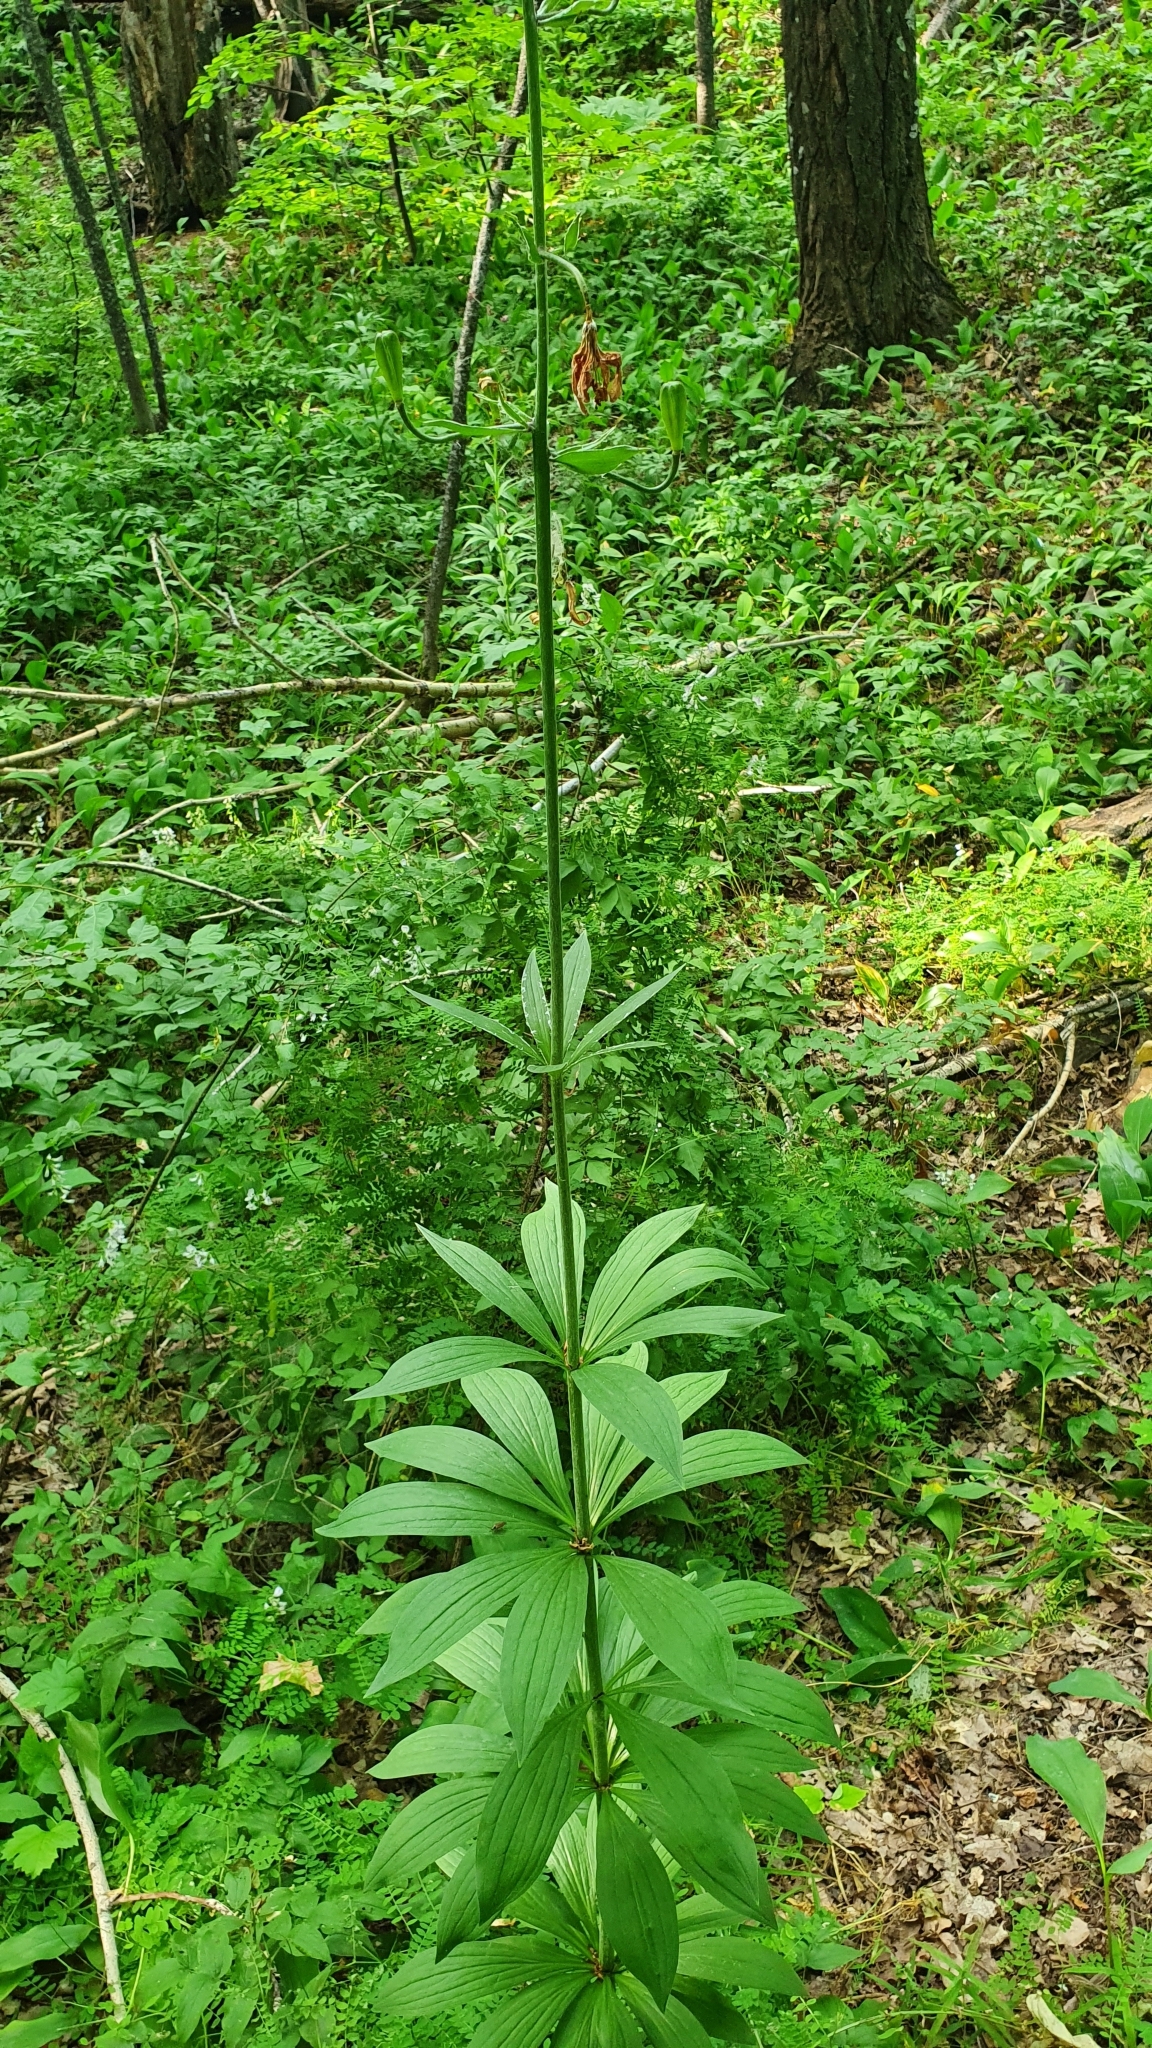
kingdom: Plantae
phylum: Tracheophyta
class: Liliopsida
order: Liliales
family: Liliaceae
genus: Lilium
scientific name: Lilium martagon
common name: Martagon lily
